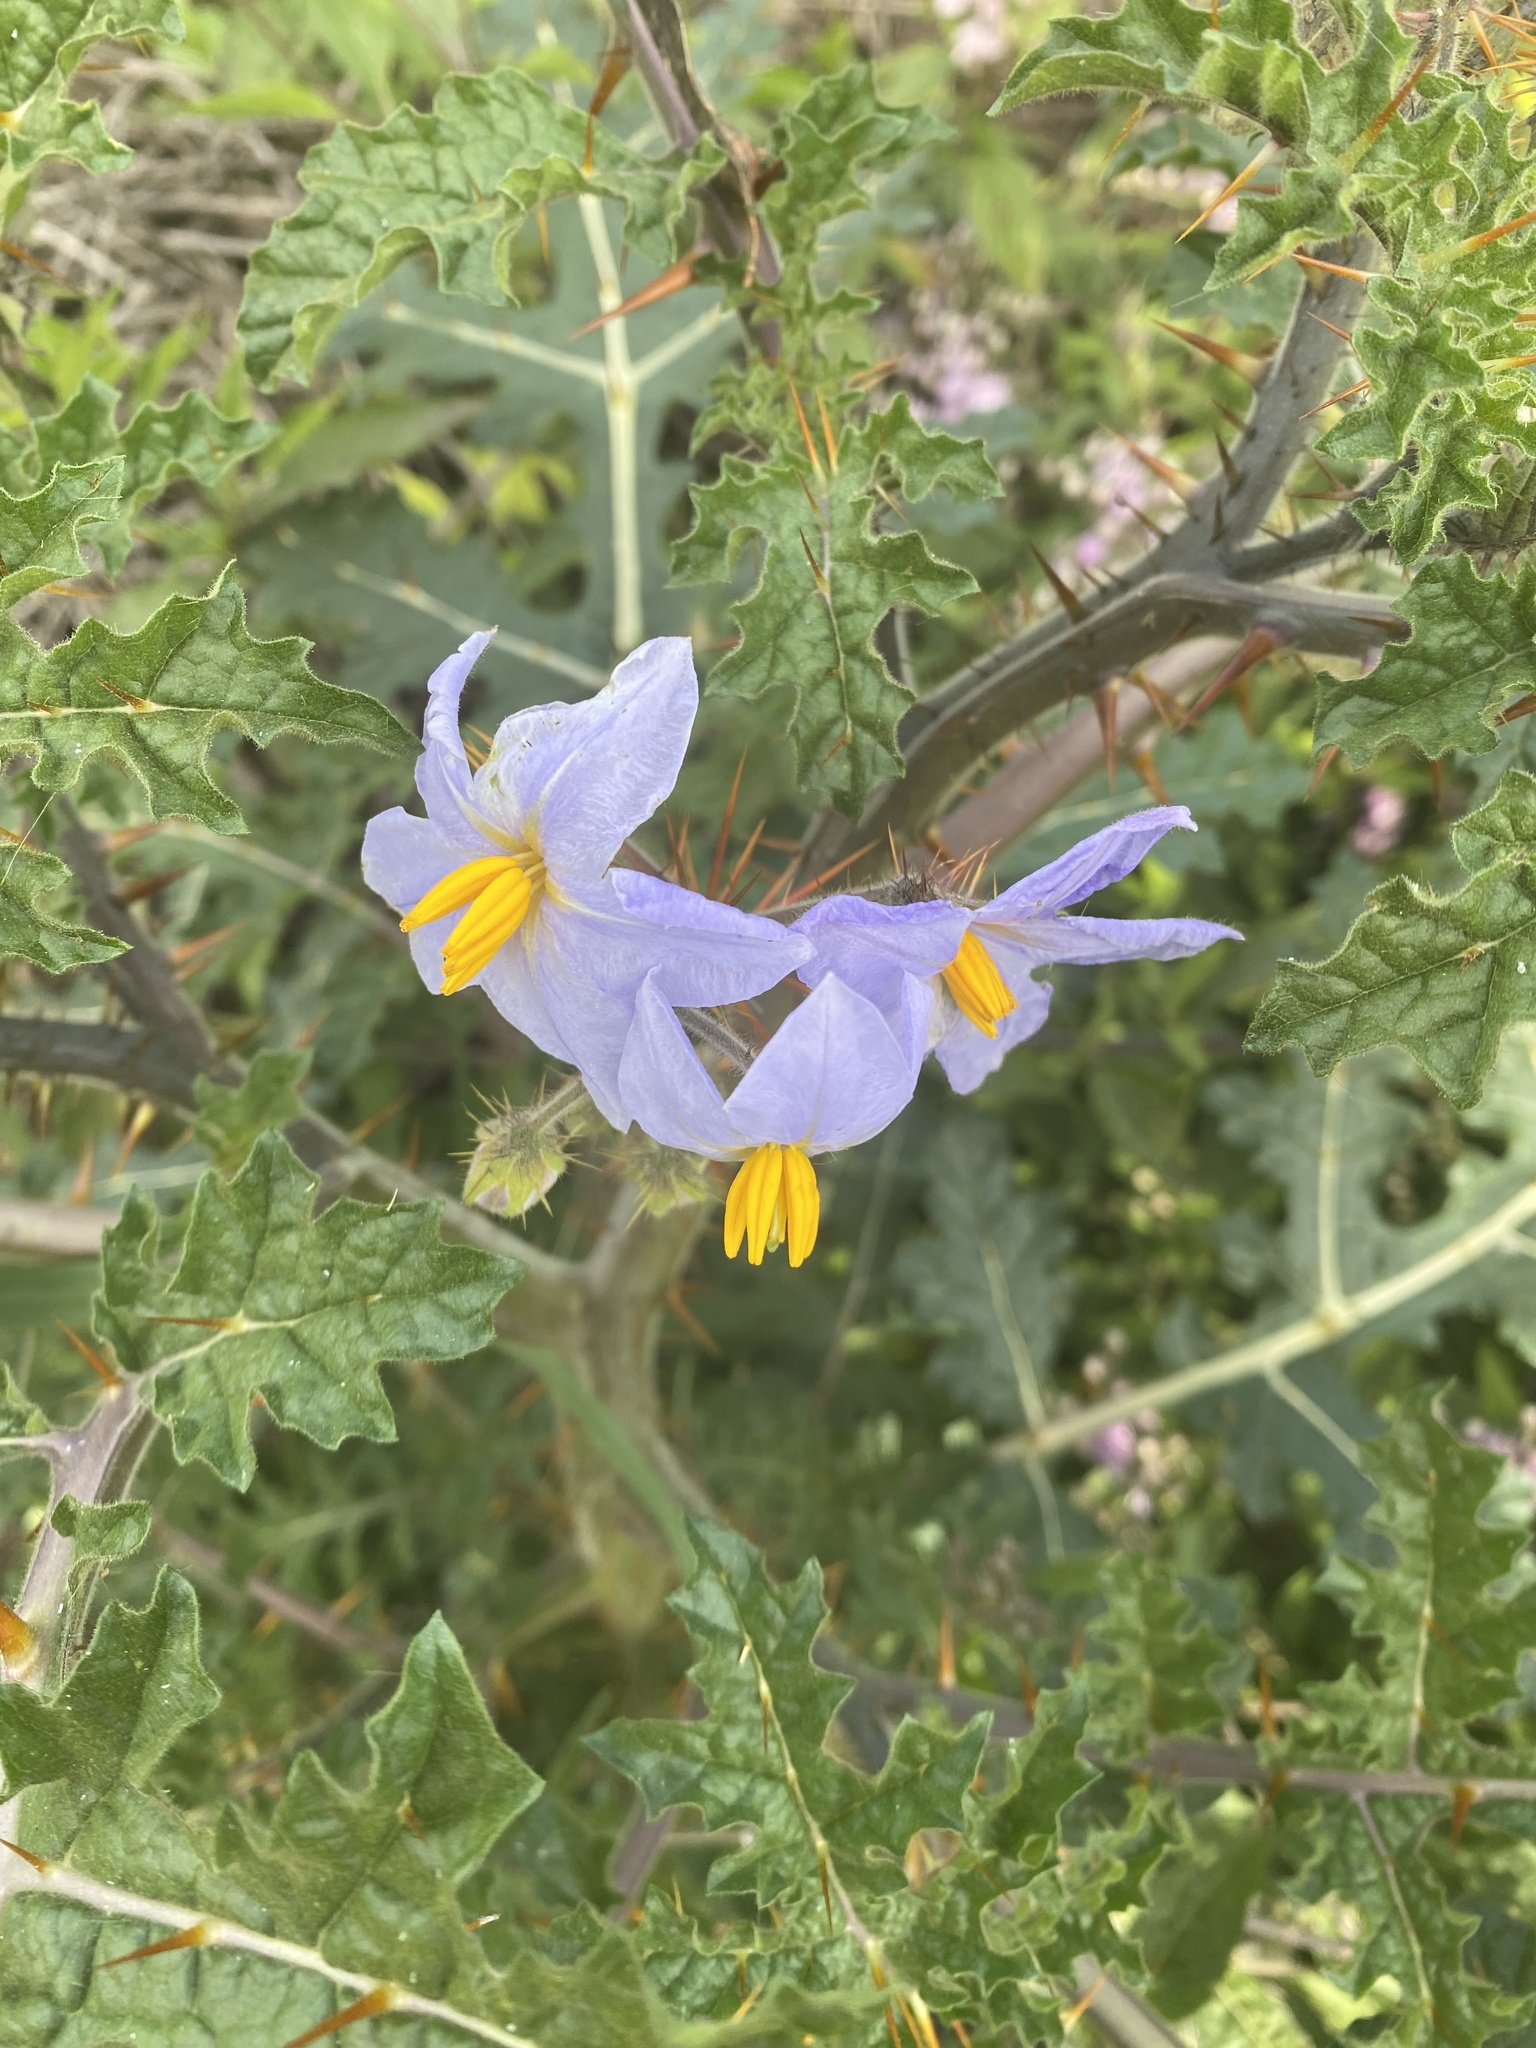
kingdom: Plantae
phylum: Tracheophyta
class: Magnoliopsida
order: Solanales
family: Solanaceae
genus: Solanum
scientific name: Solanum sisymbriifolium
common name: Red buffalo-bur
